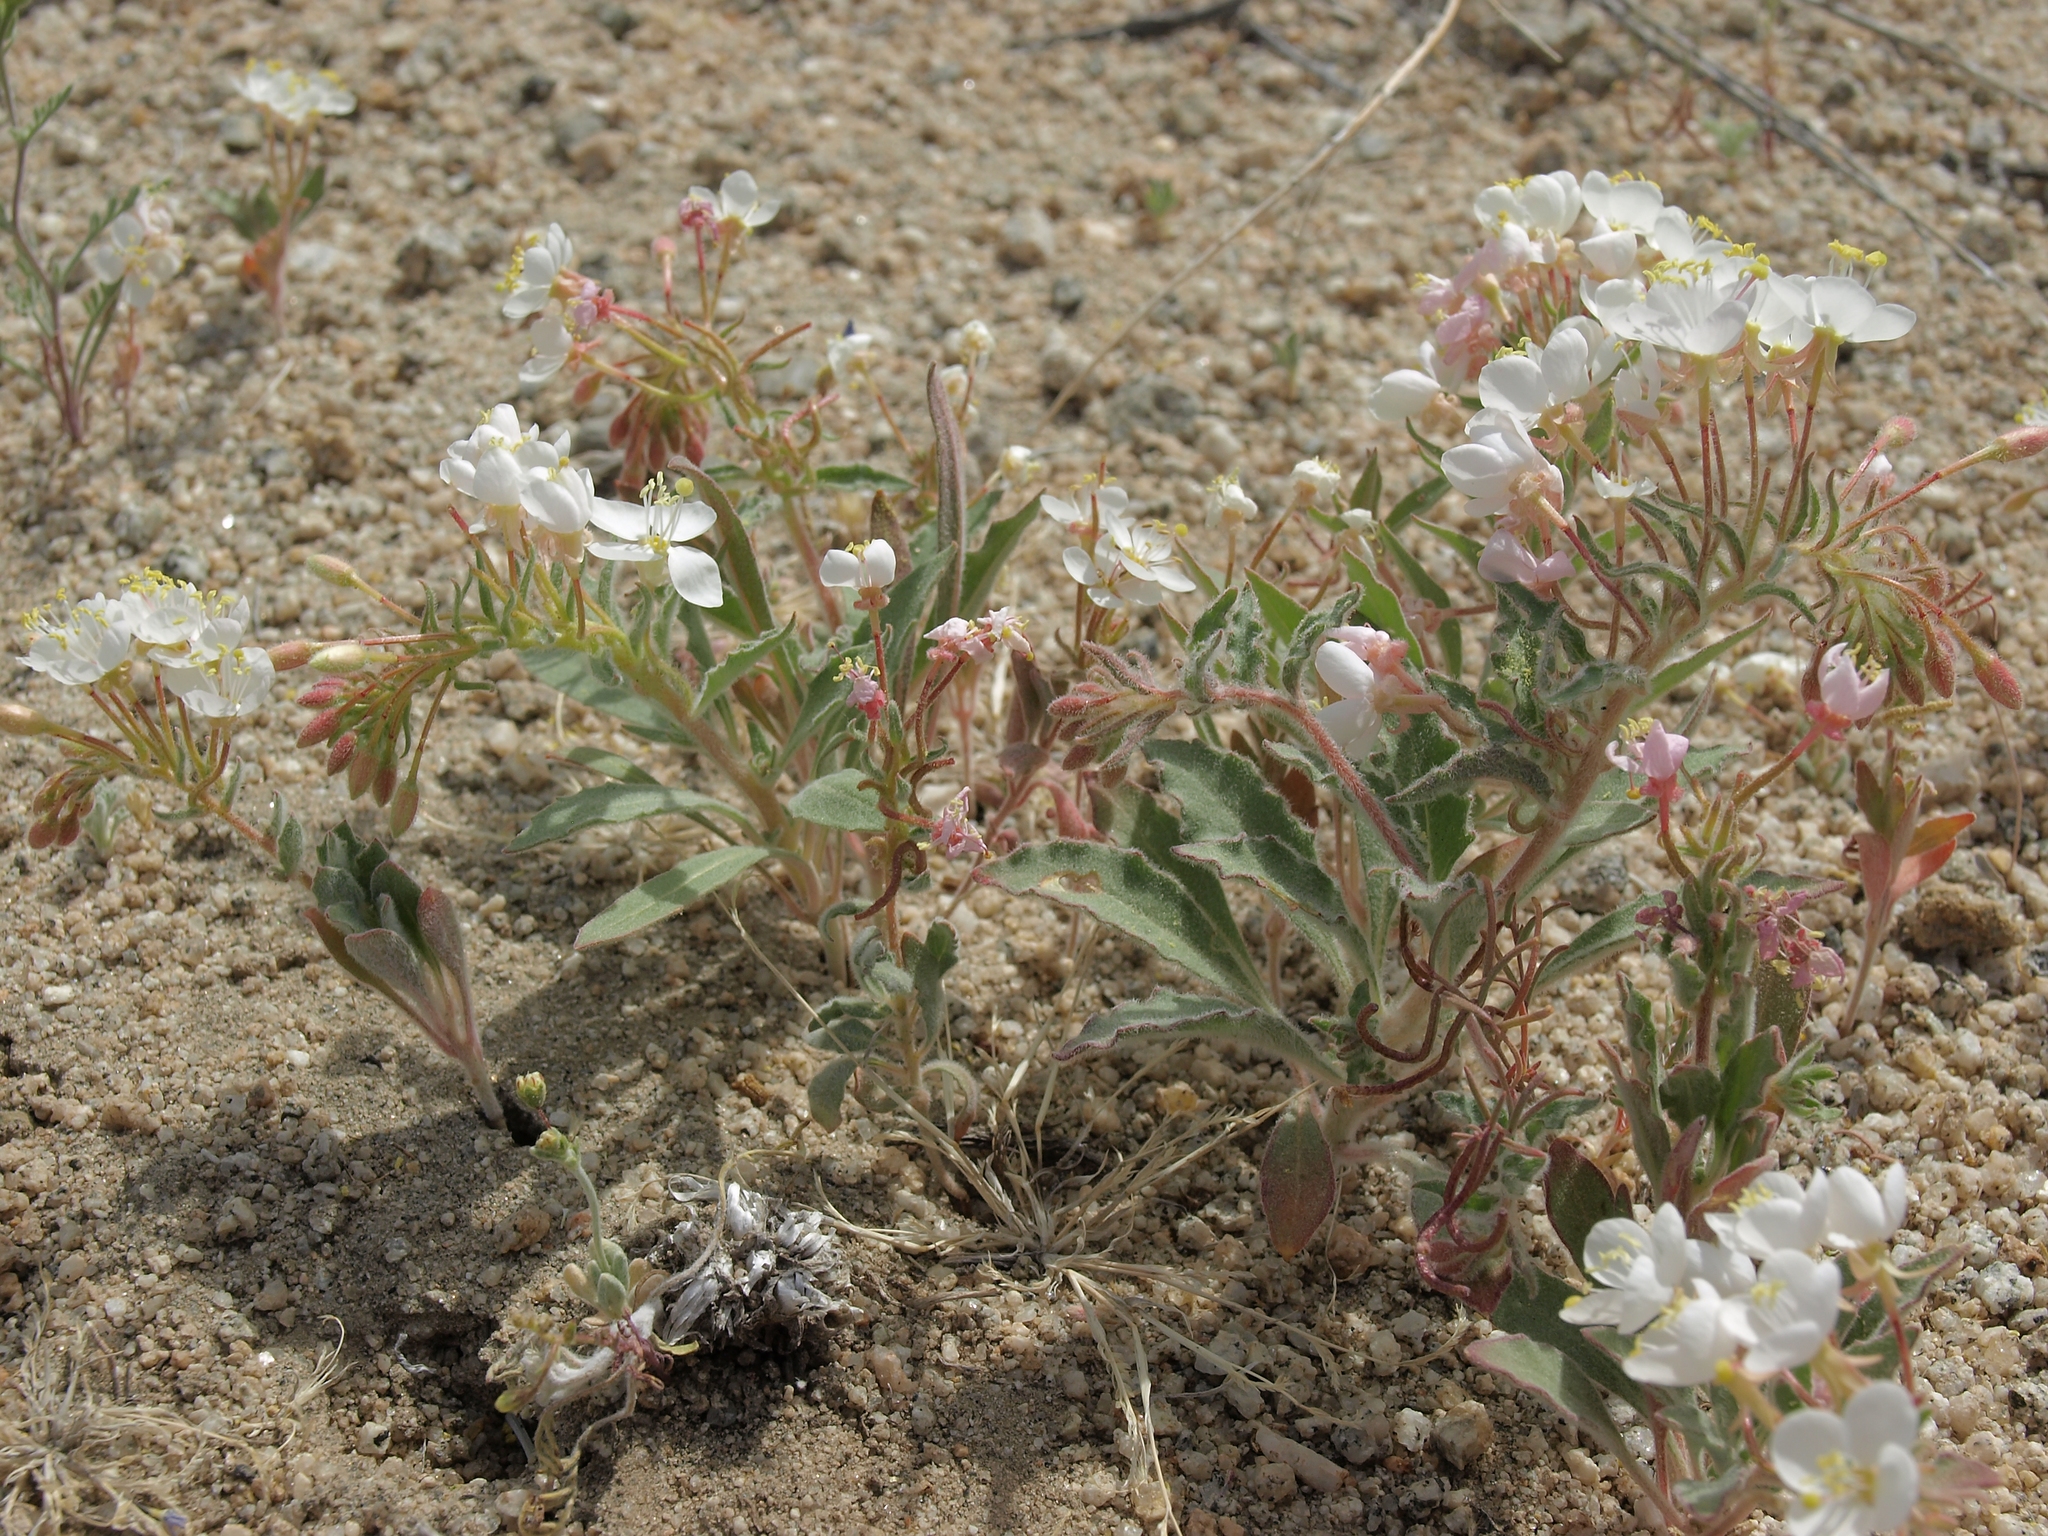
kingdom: Plantae
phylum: Tracheophyta
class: Magnoliopsida
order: Myrtales
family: Onagraceae
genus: Eremothera
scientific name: Eremothera boothii
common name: Booth's evening primrose
